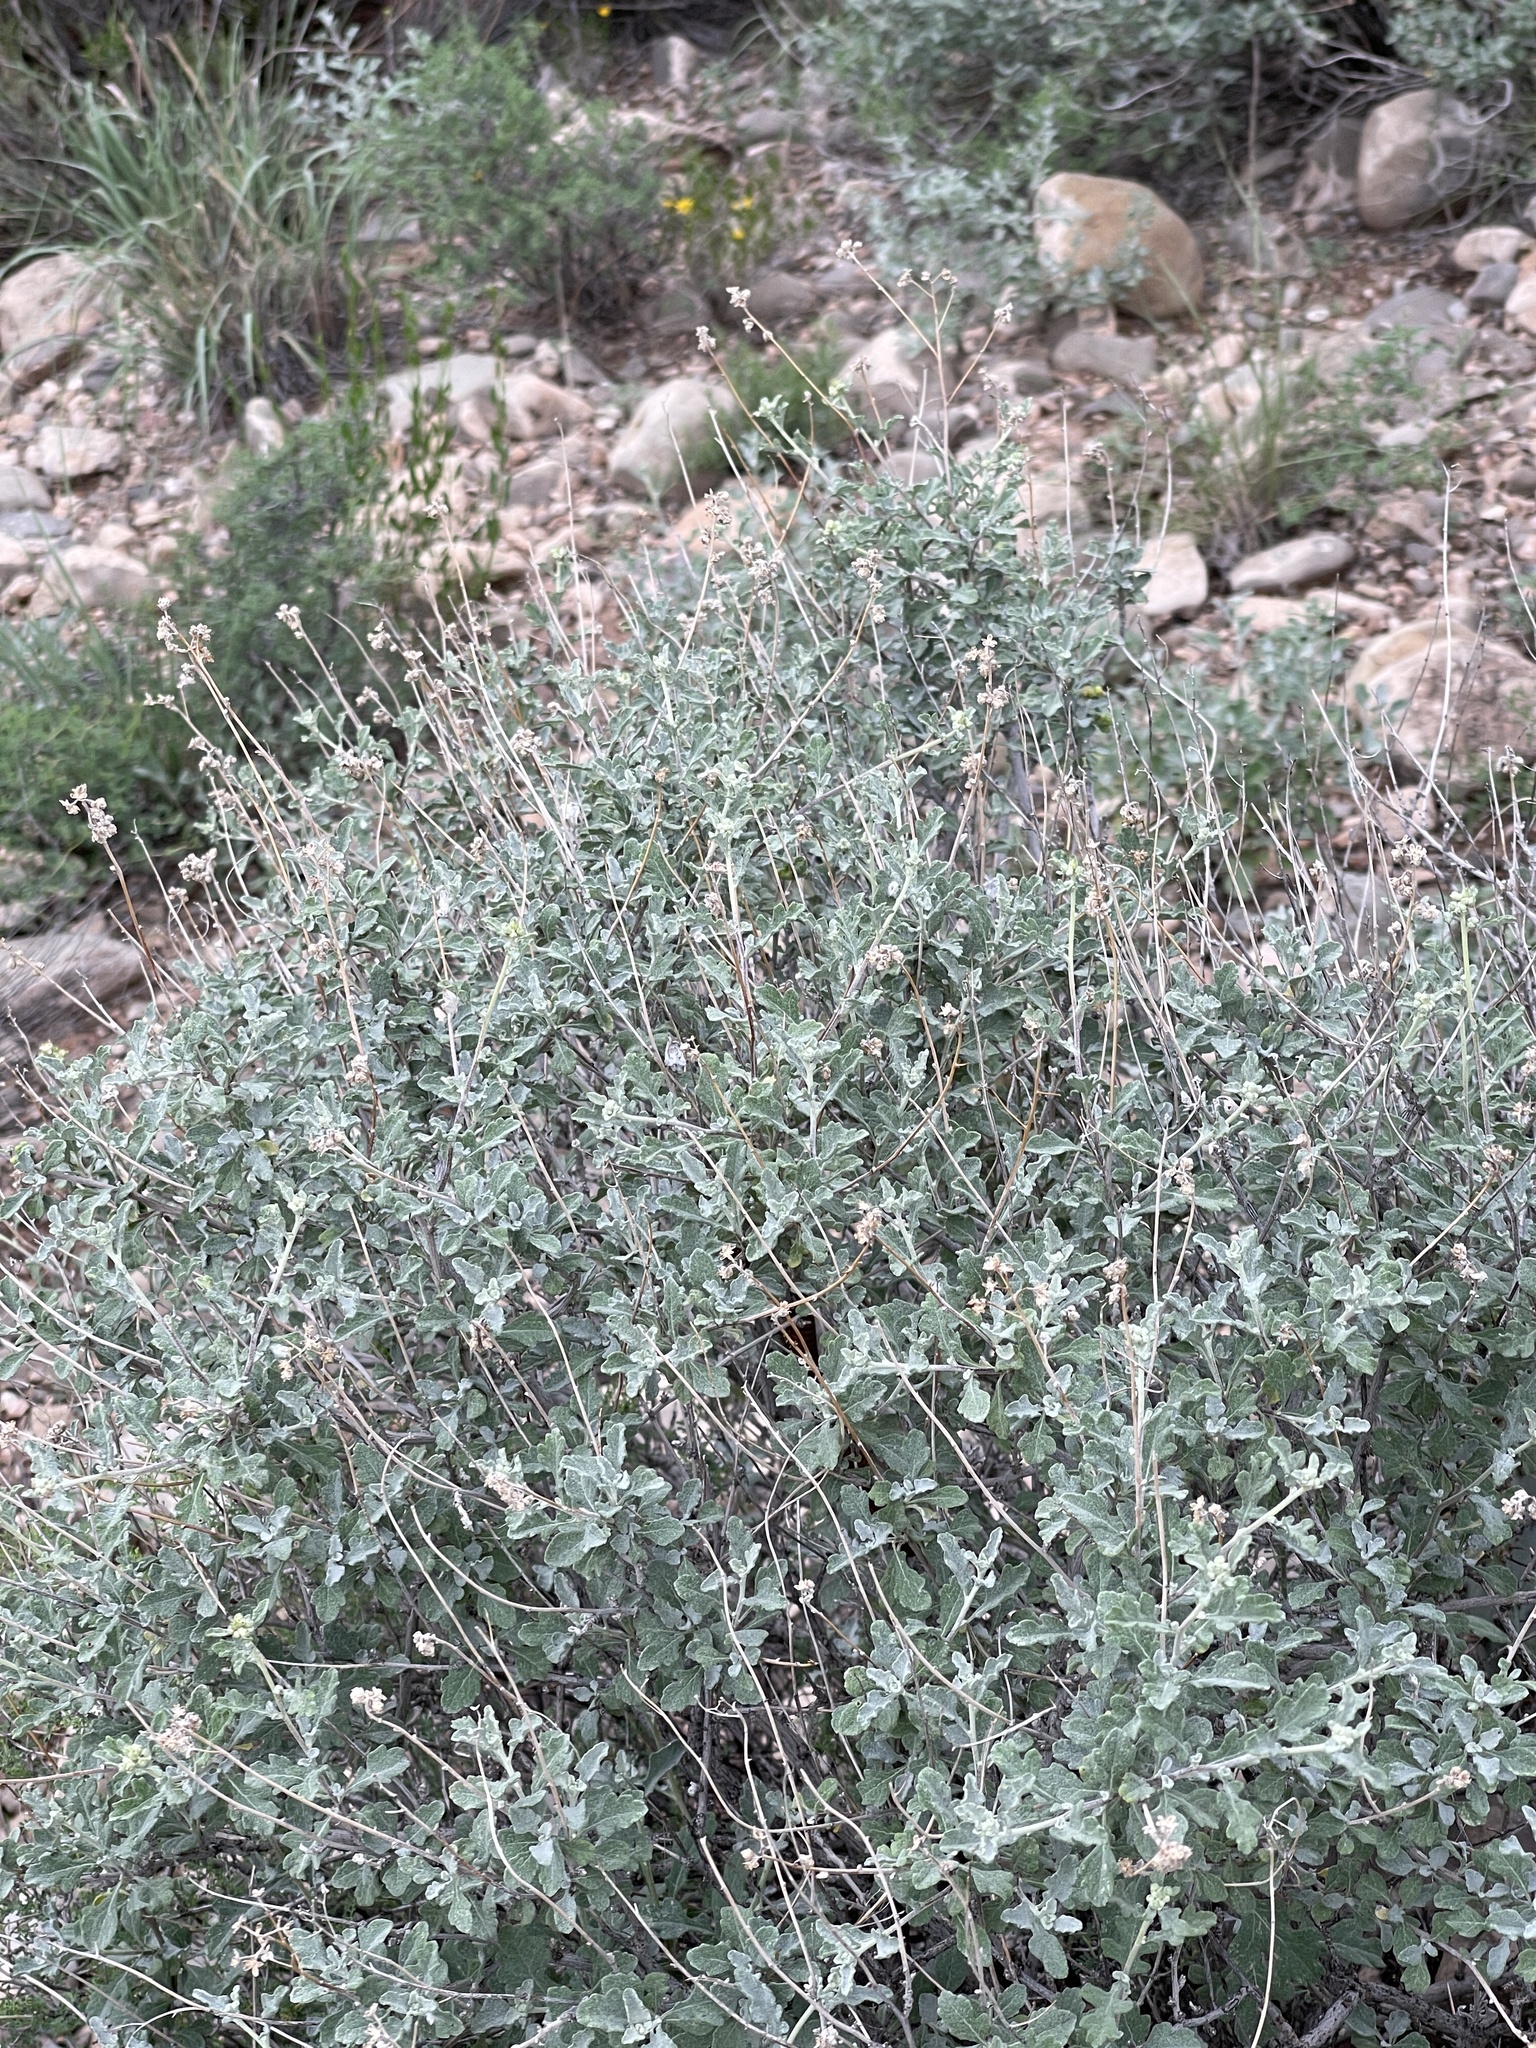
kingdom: Plantae
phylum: Tracheophyta
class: Magnoliopsida
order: Asterales
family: Asteraceae
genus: Parthenium
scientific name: Parthenium incanum
